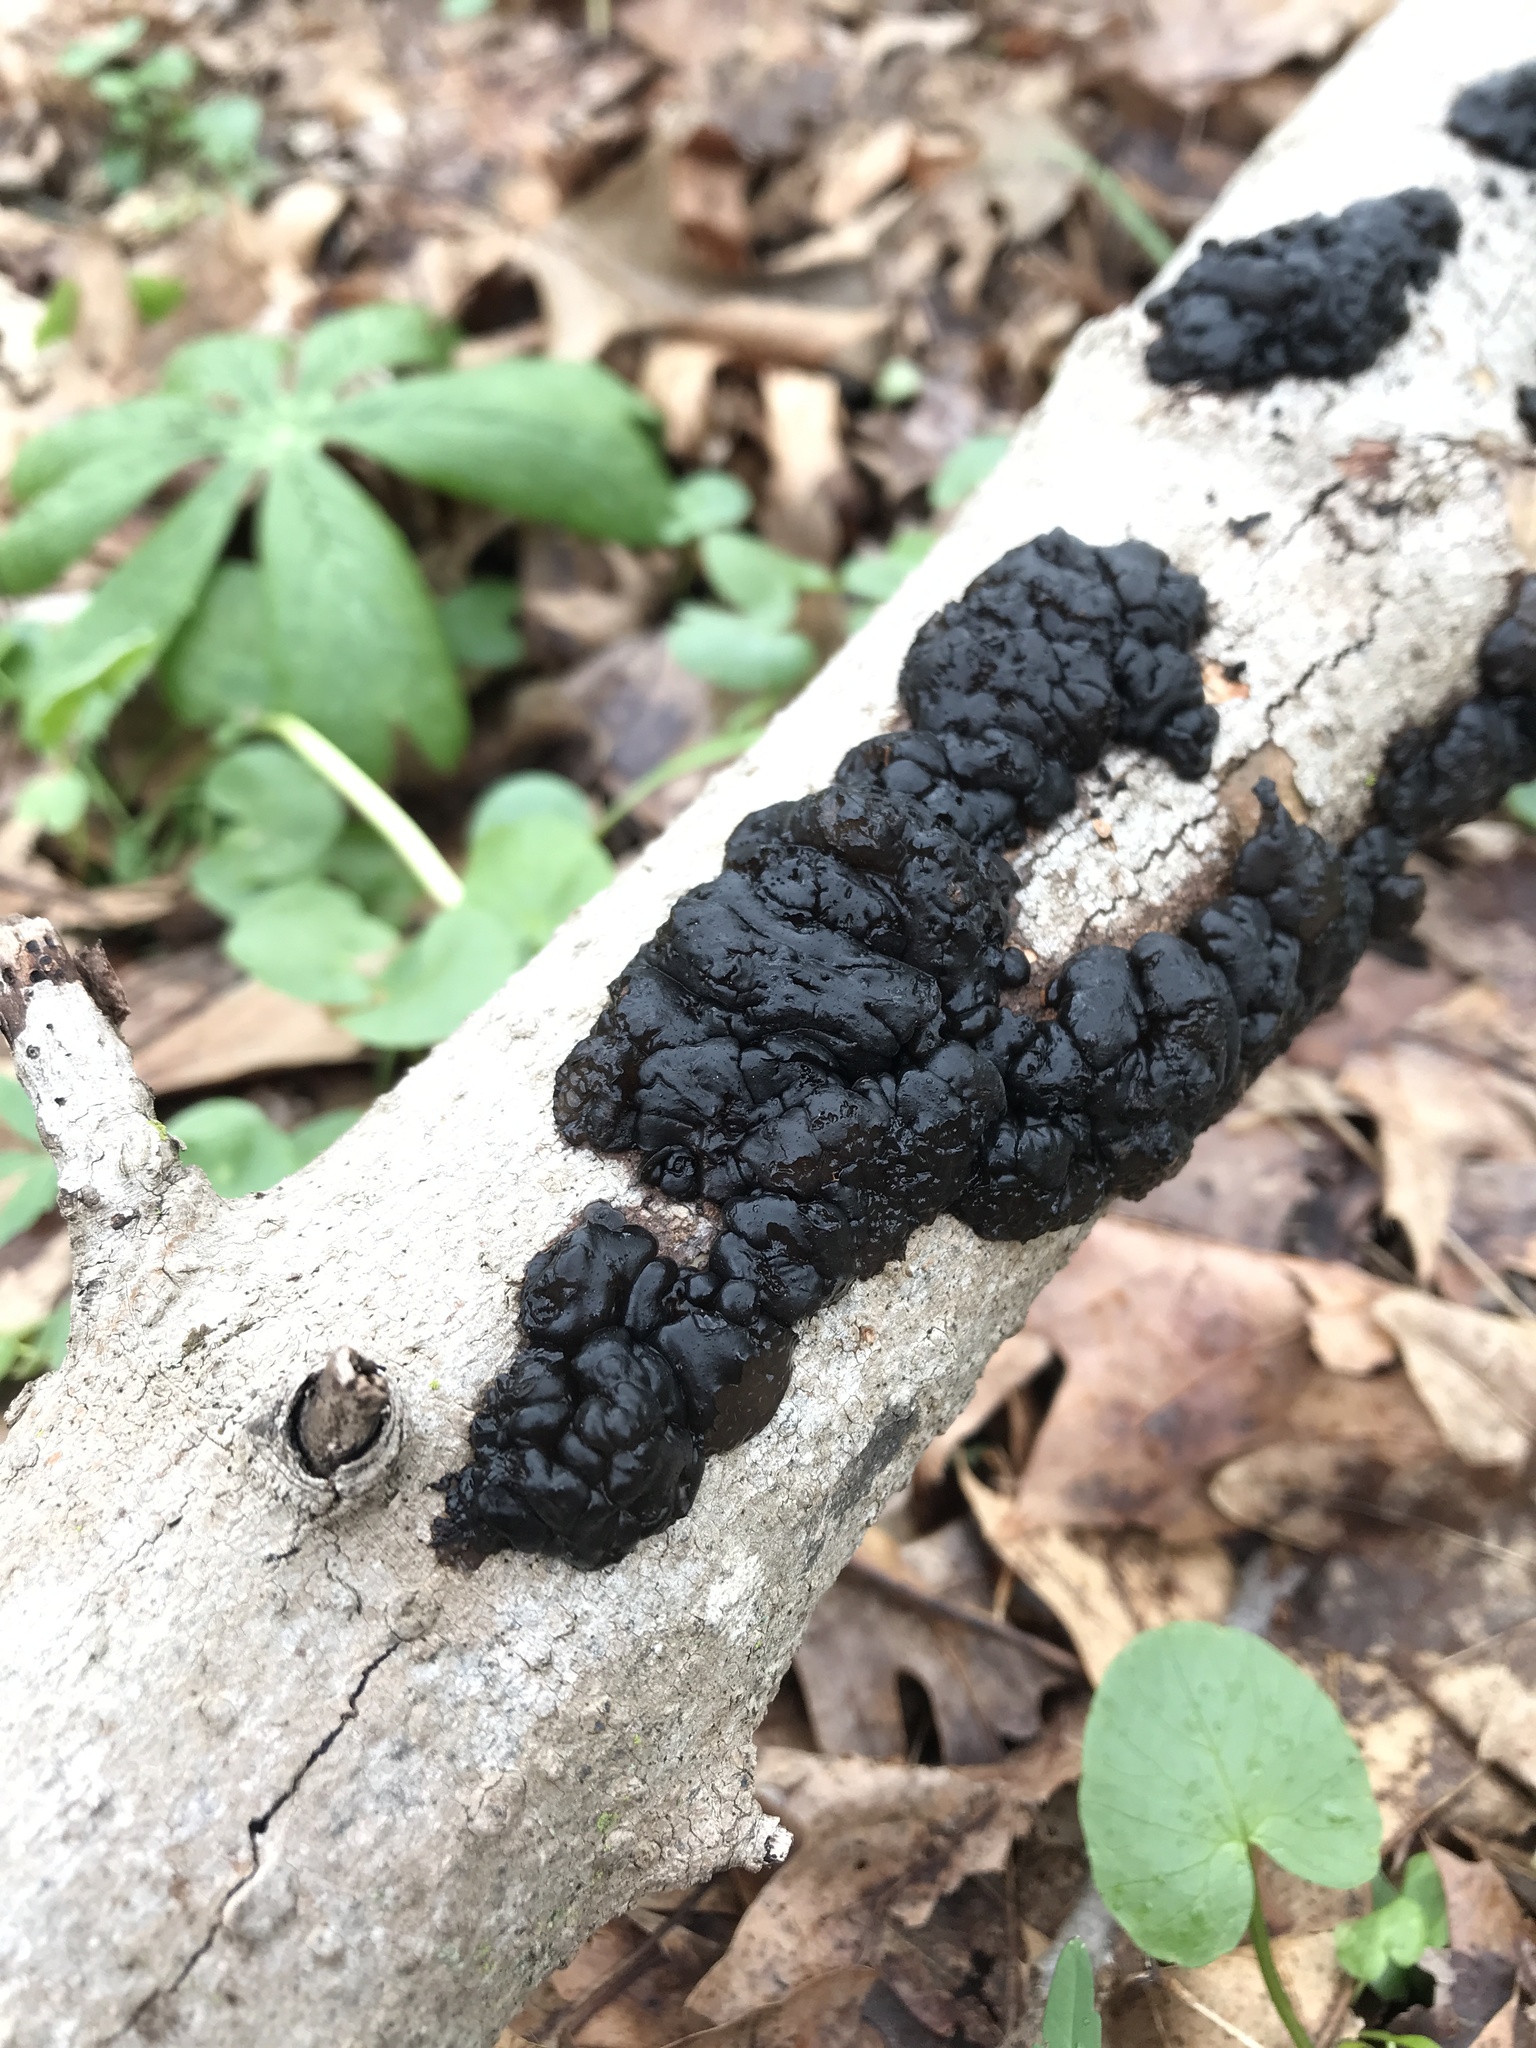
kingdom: Fungi
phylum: Basidiomycota
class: Agaricomycetes
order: Auriculariales
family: Auriculariaceae
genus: Exidia
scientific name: Exidia glandulosa
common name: Witches' butter
